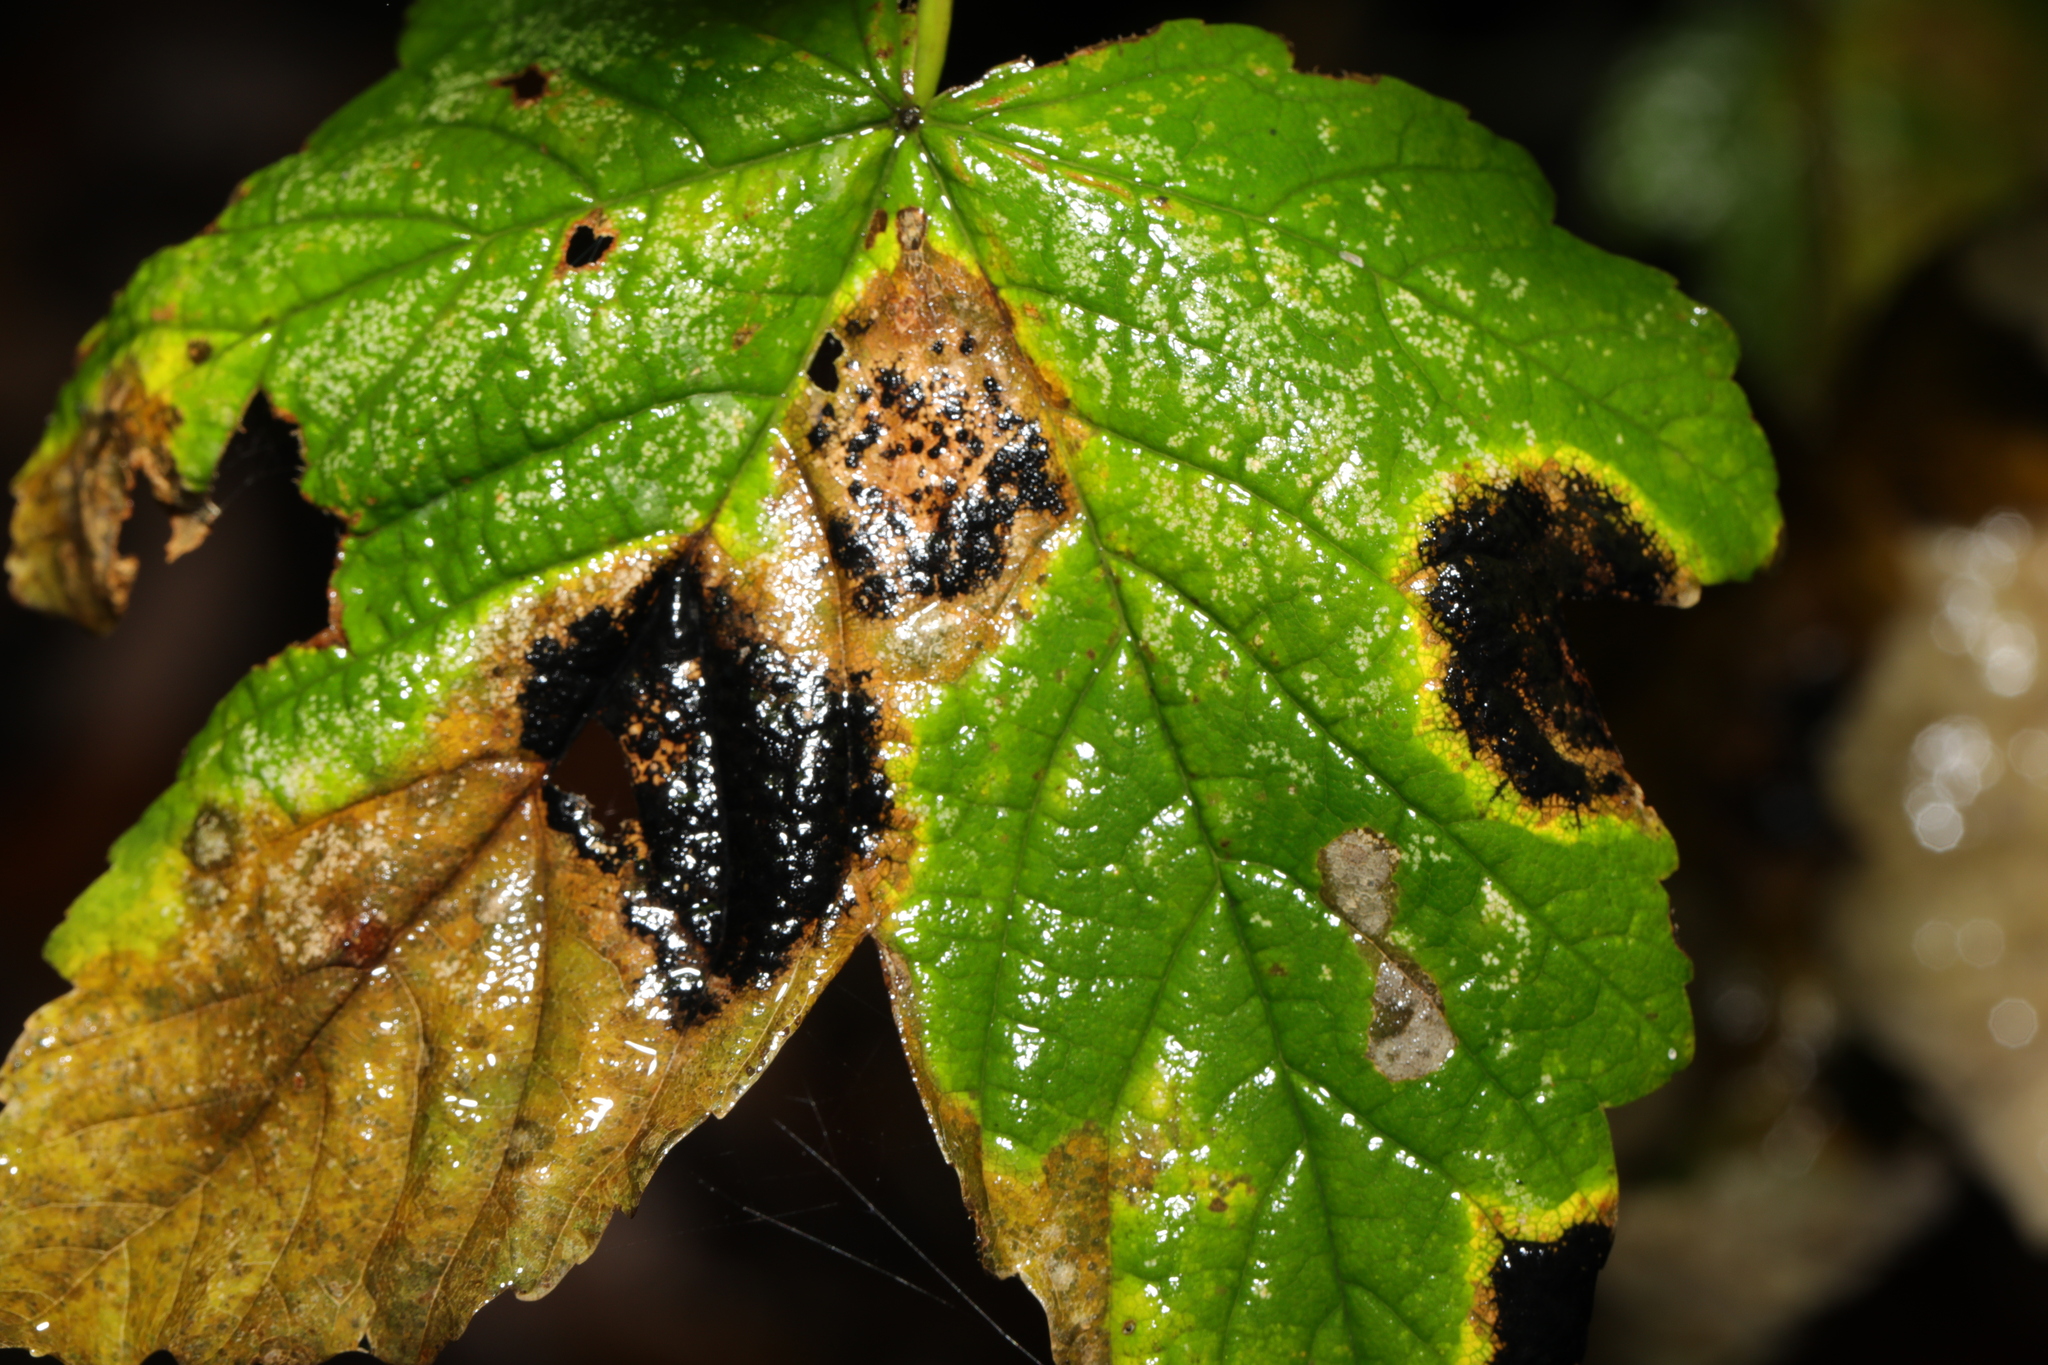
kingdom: Fungi
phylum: Ascomycota
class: Leotiomycetes
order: Rhytismatales
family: Rhytismataceae
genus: Rhytisma
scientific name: Rhytisma acerinum
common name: European tar spot
